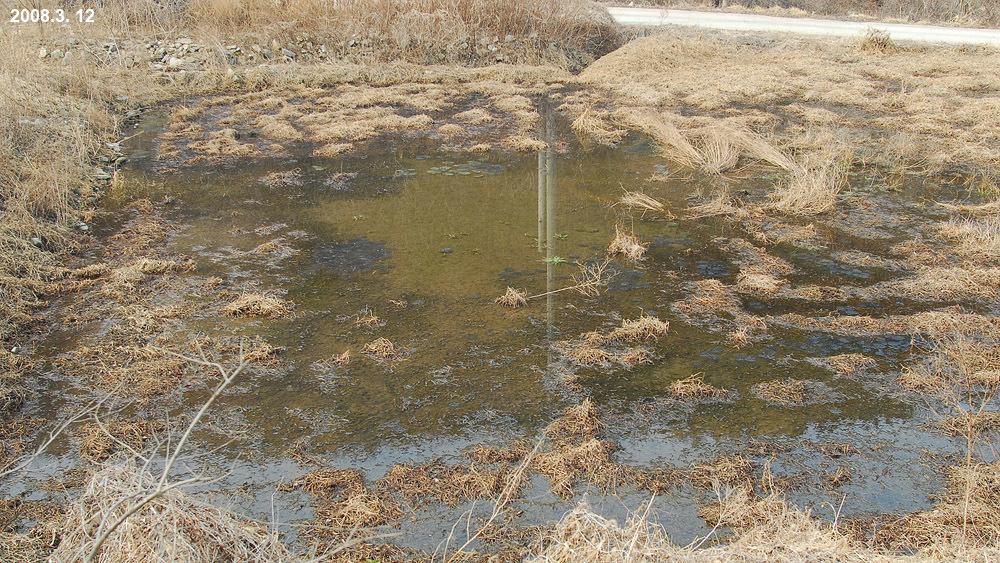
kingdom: Animalia
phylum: Chordata
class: Amphibia
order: Anura
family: Ranidae
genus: Rana
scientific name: Rana uenoi
